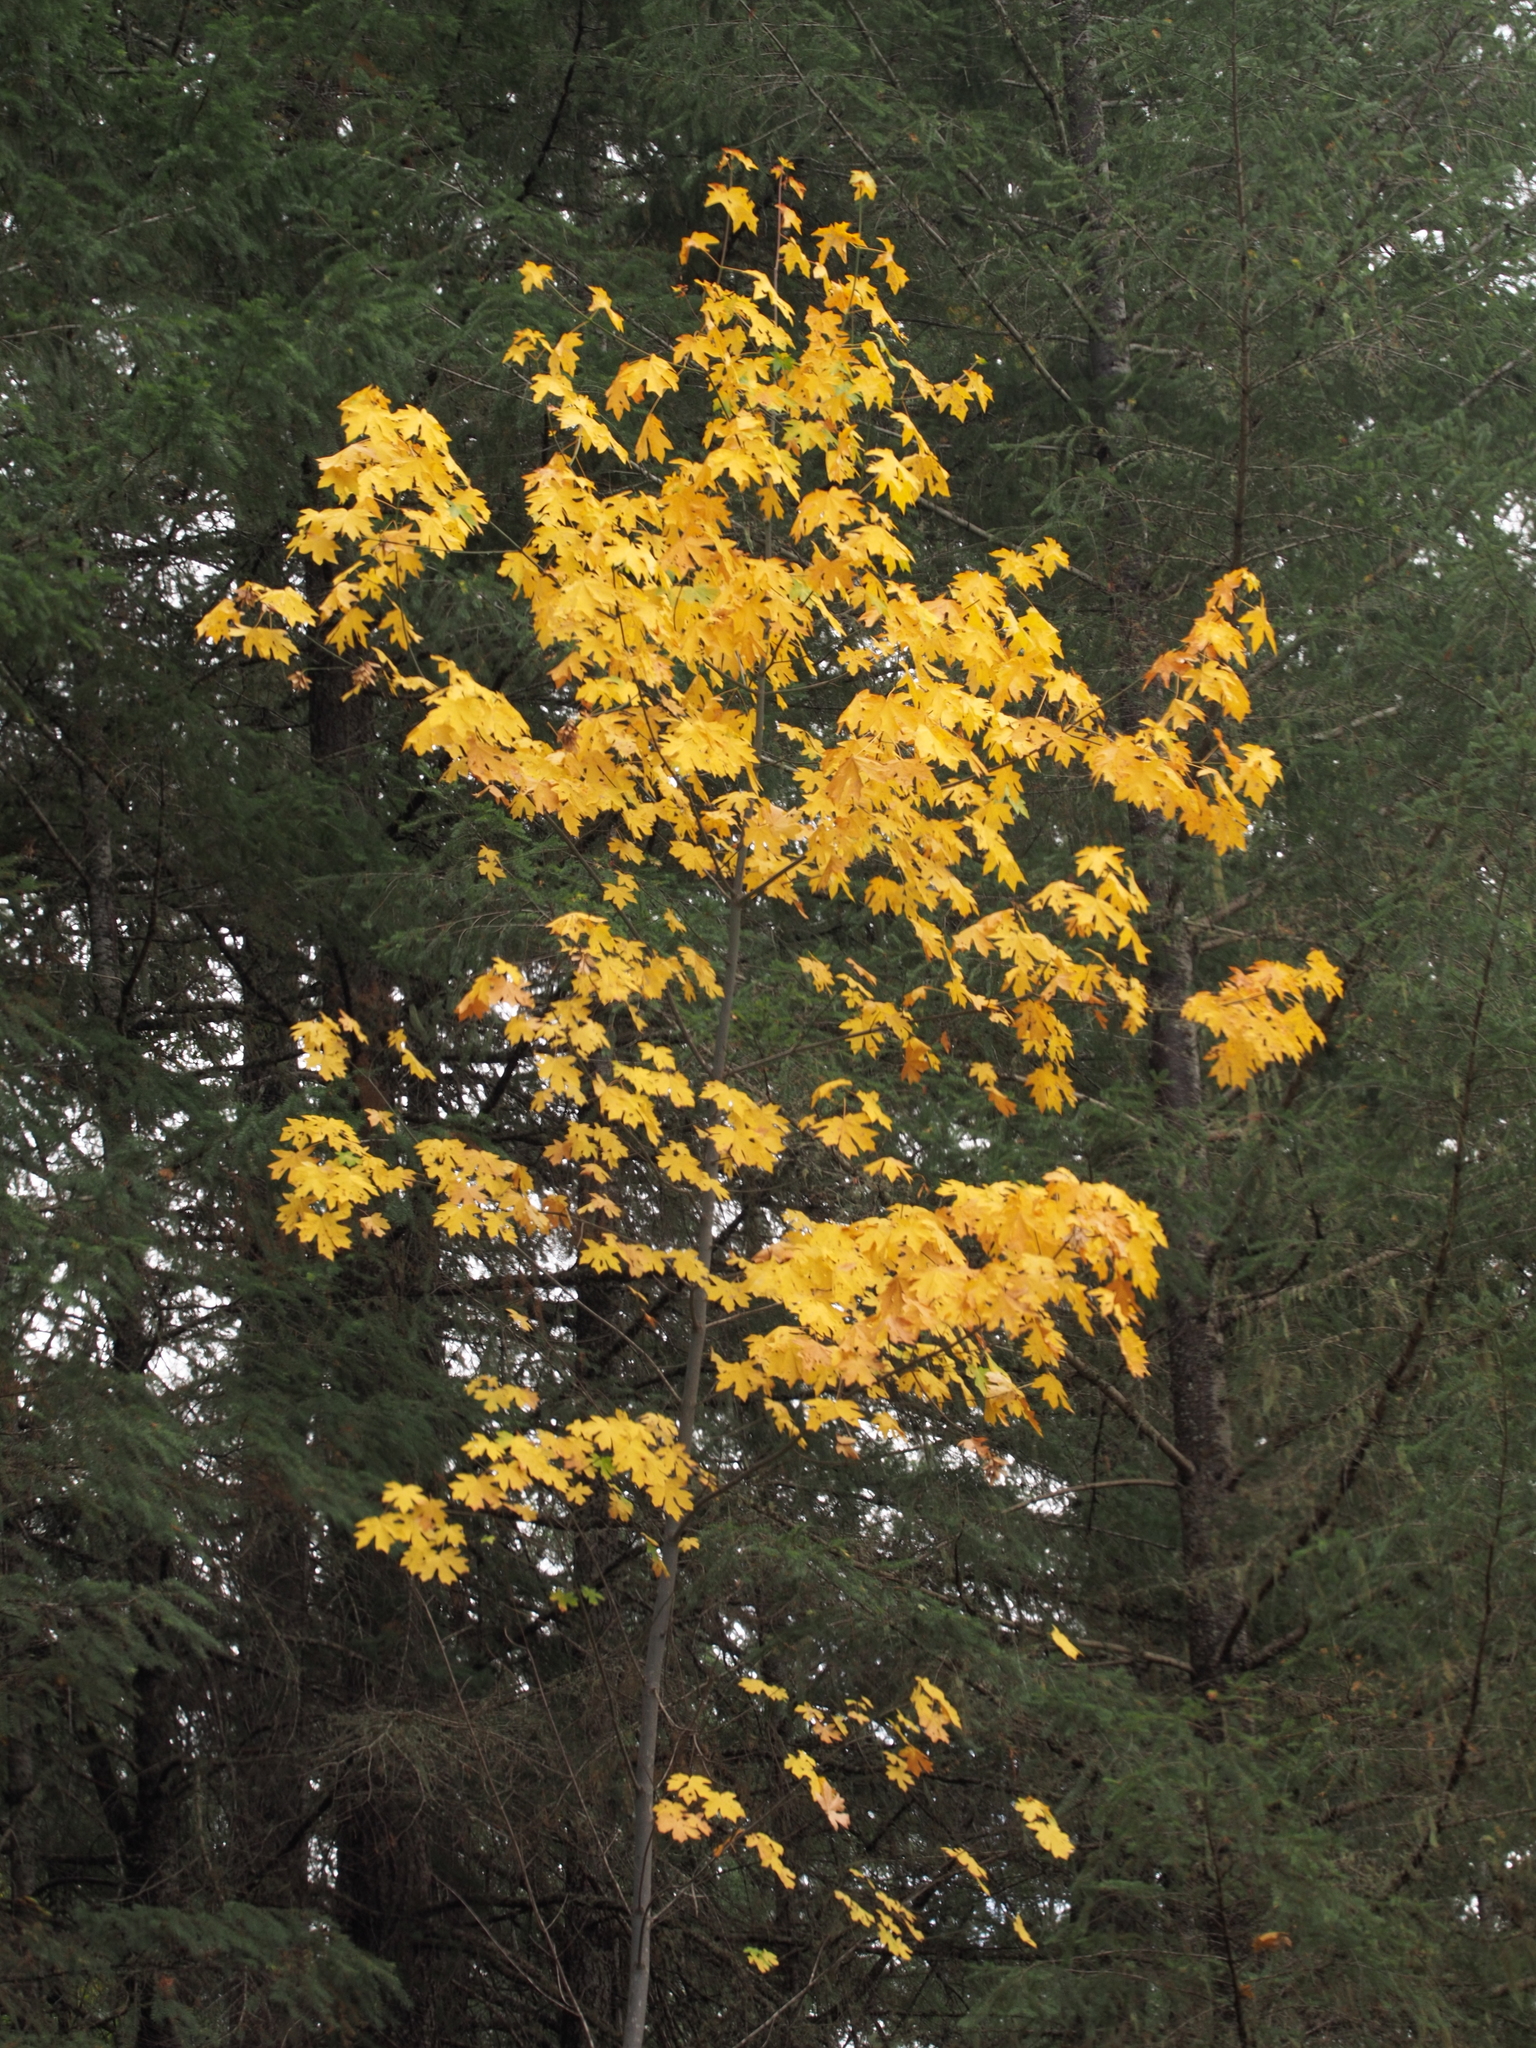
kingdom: Plantae
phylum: Tracheophyta
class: Magnoliopsida
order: Sapindales
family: Sapindaceae
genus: Acer
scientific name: Acer macrophyllum
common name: Oregon maple
